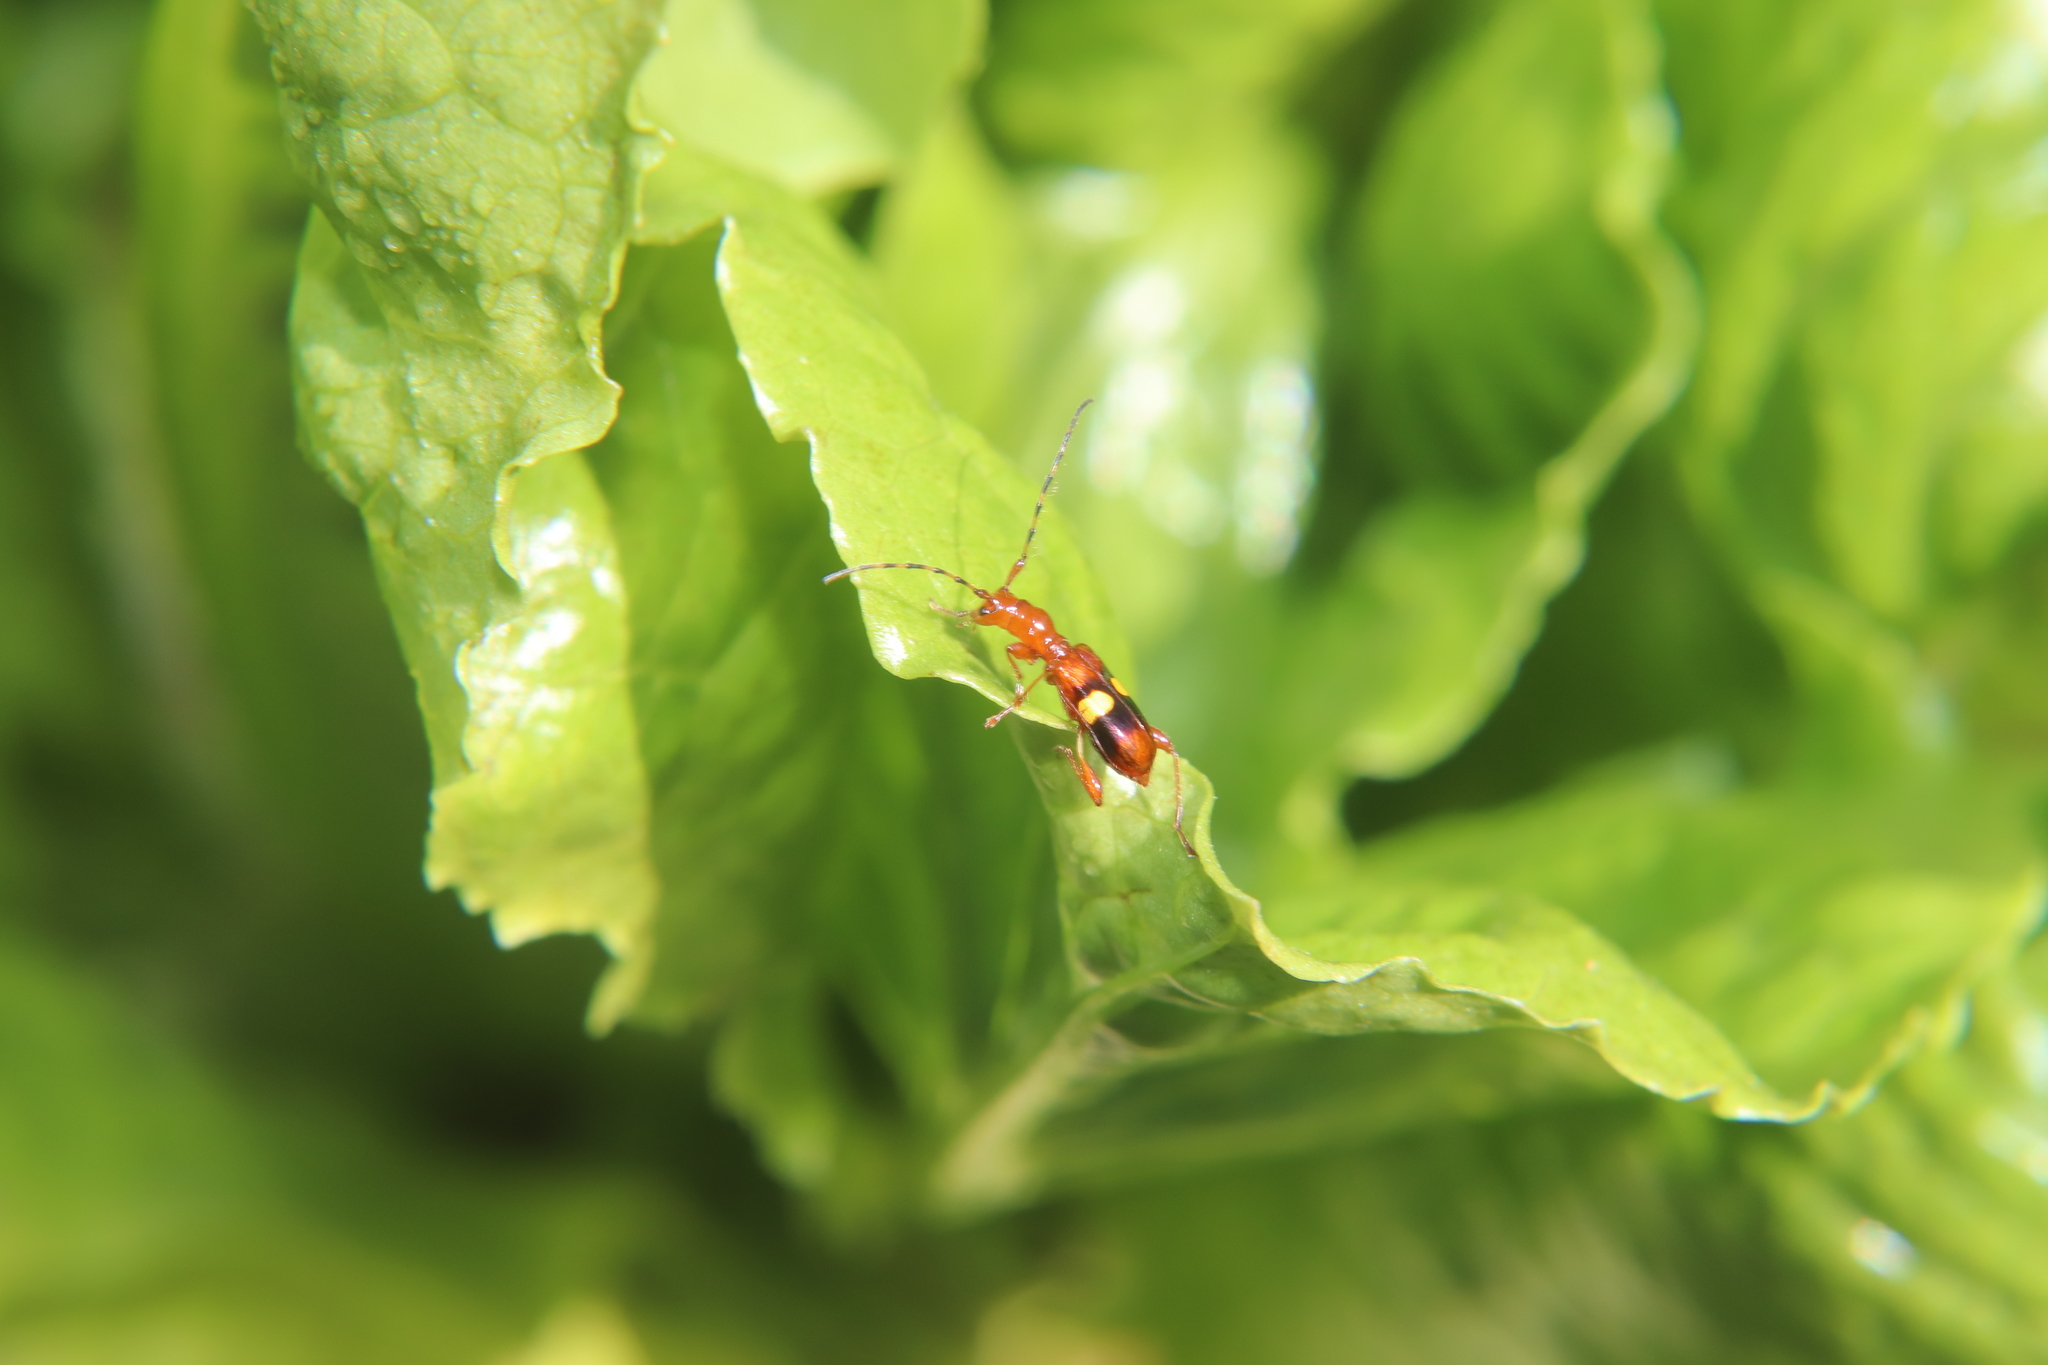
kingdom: Animalia
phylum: Arthropoda
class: Insecta
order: Coleoptera
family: Cerambycidae
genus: Zorion
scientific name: Zorion australe
